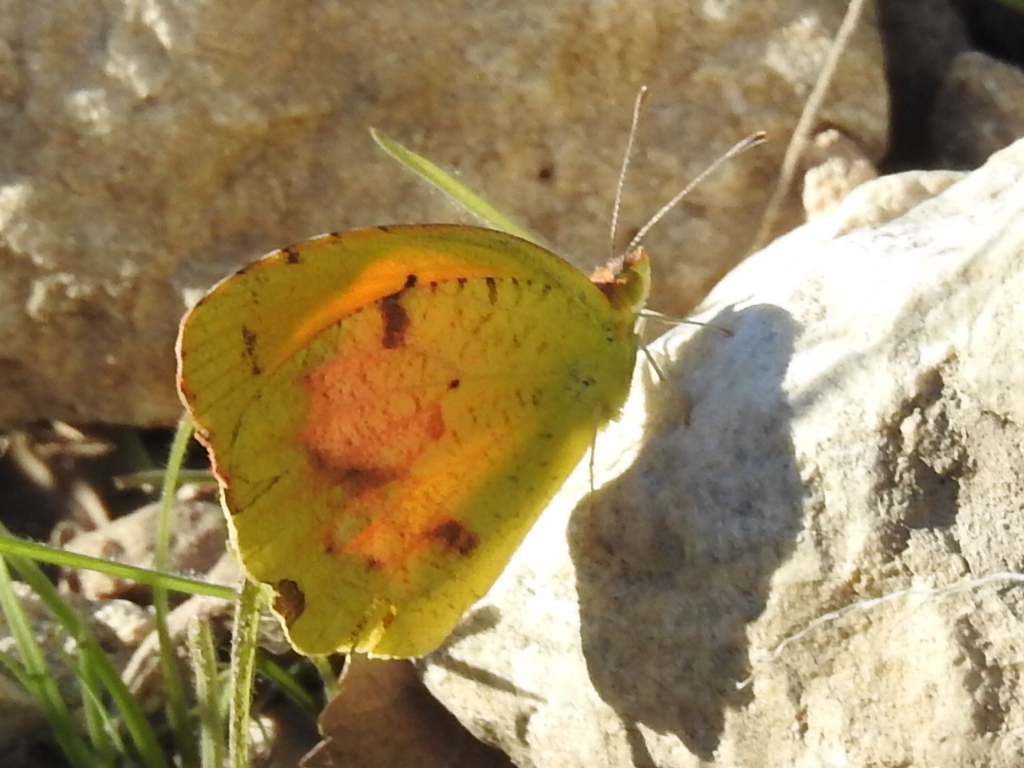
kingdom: Animalia
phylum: Arthropoda
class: Insecta
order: Lepidoptera
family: Pieridae
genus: Abaeis
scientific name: Abaeis nicippe
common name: Sleepy orange
